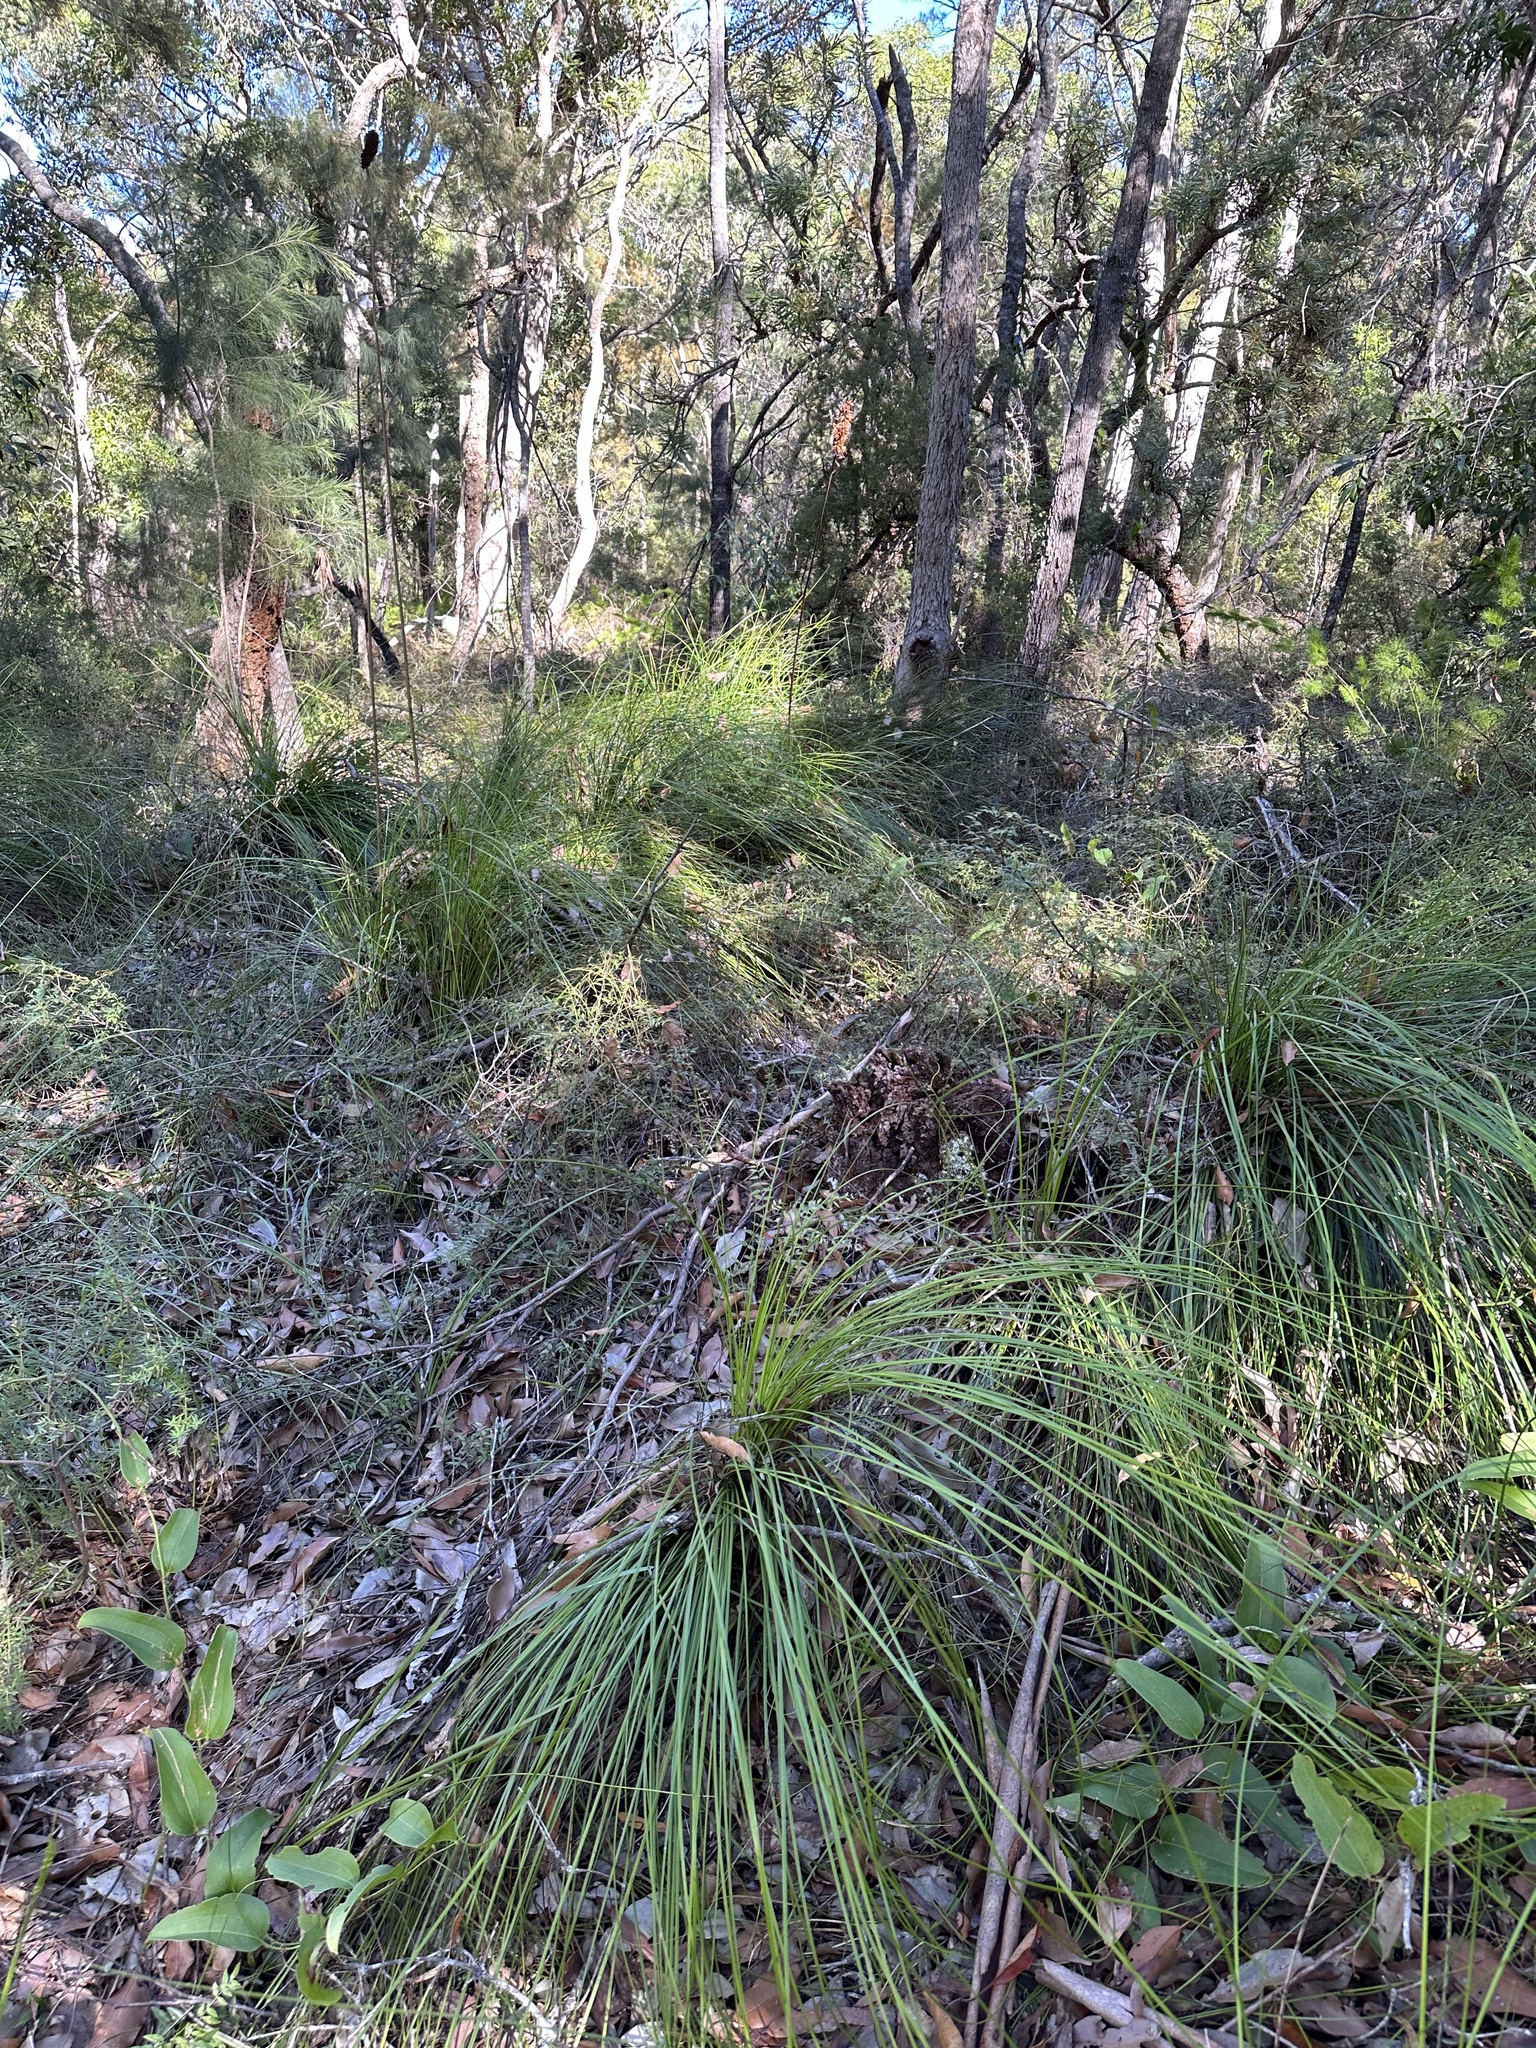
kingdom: Plantae
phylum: Tracheophyta
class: Liliopsida
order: Asparagales
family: Asphodelaceae
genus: Xanthorrhoea
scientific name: Xanthorrhoea macronema
